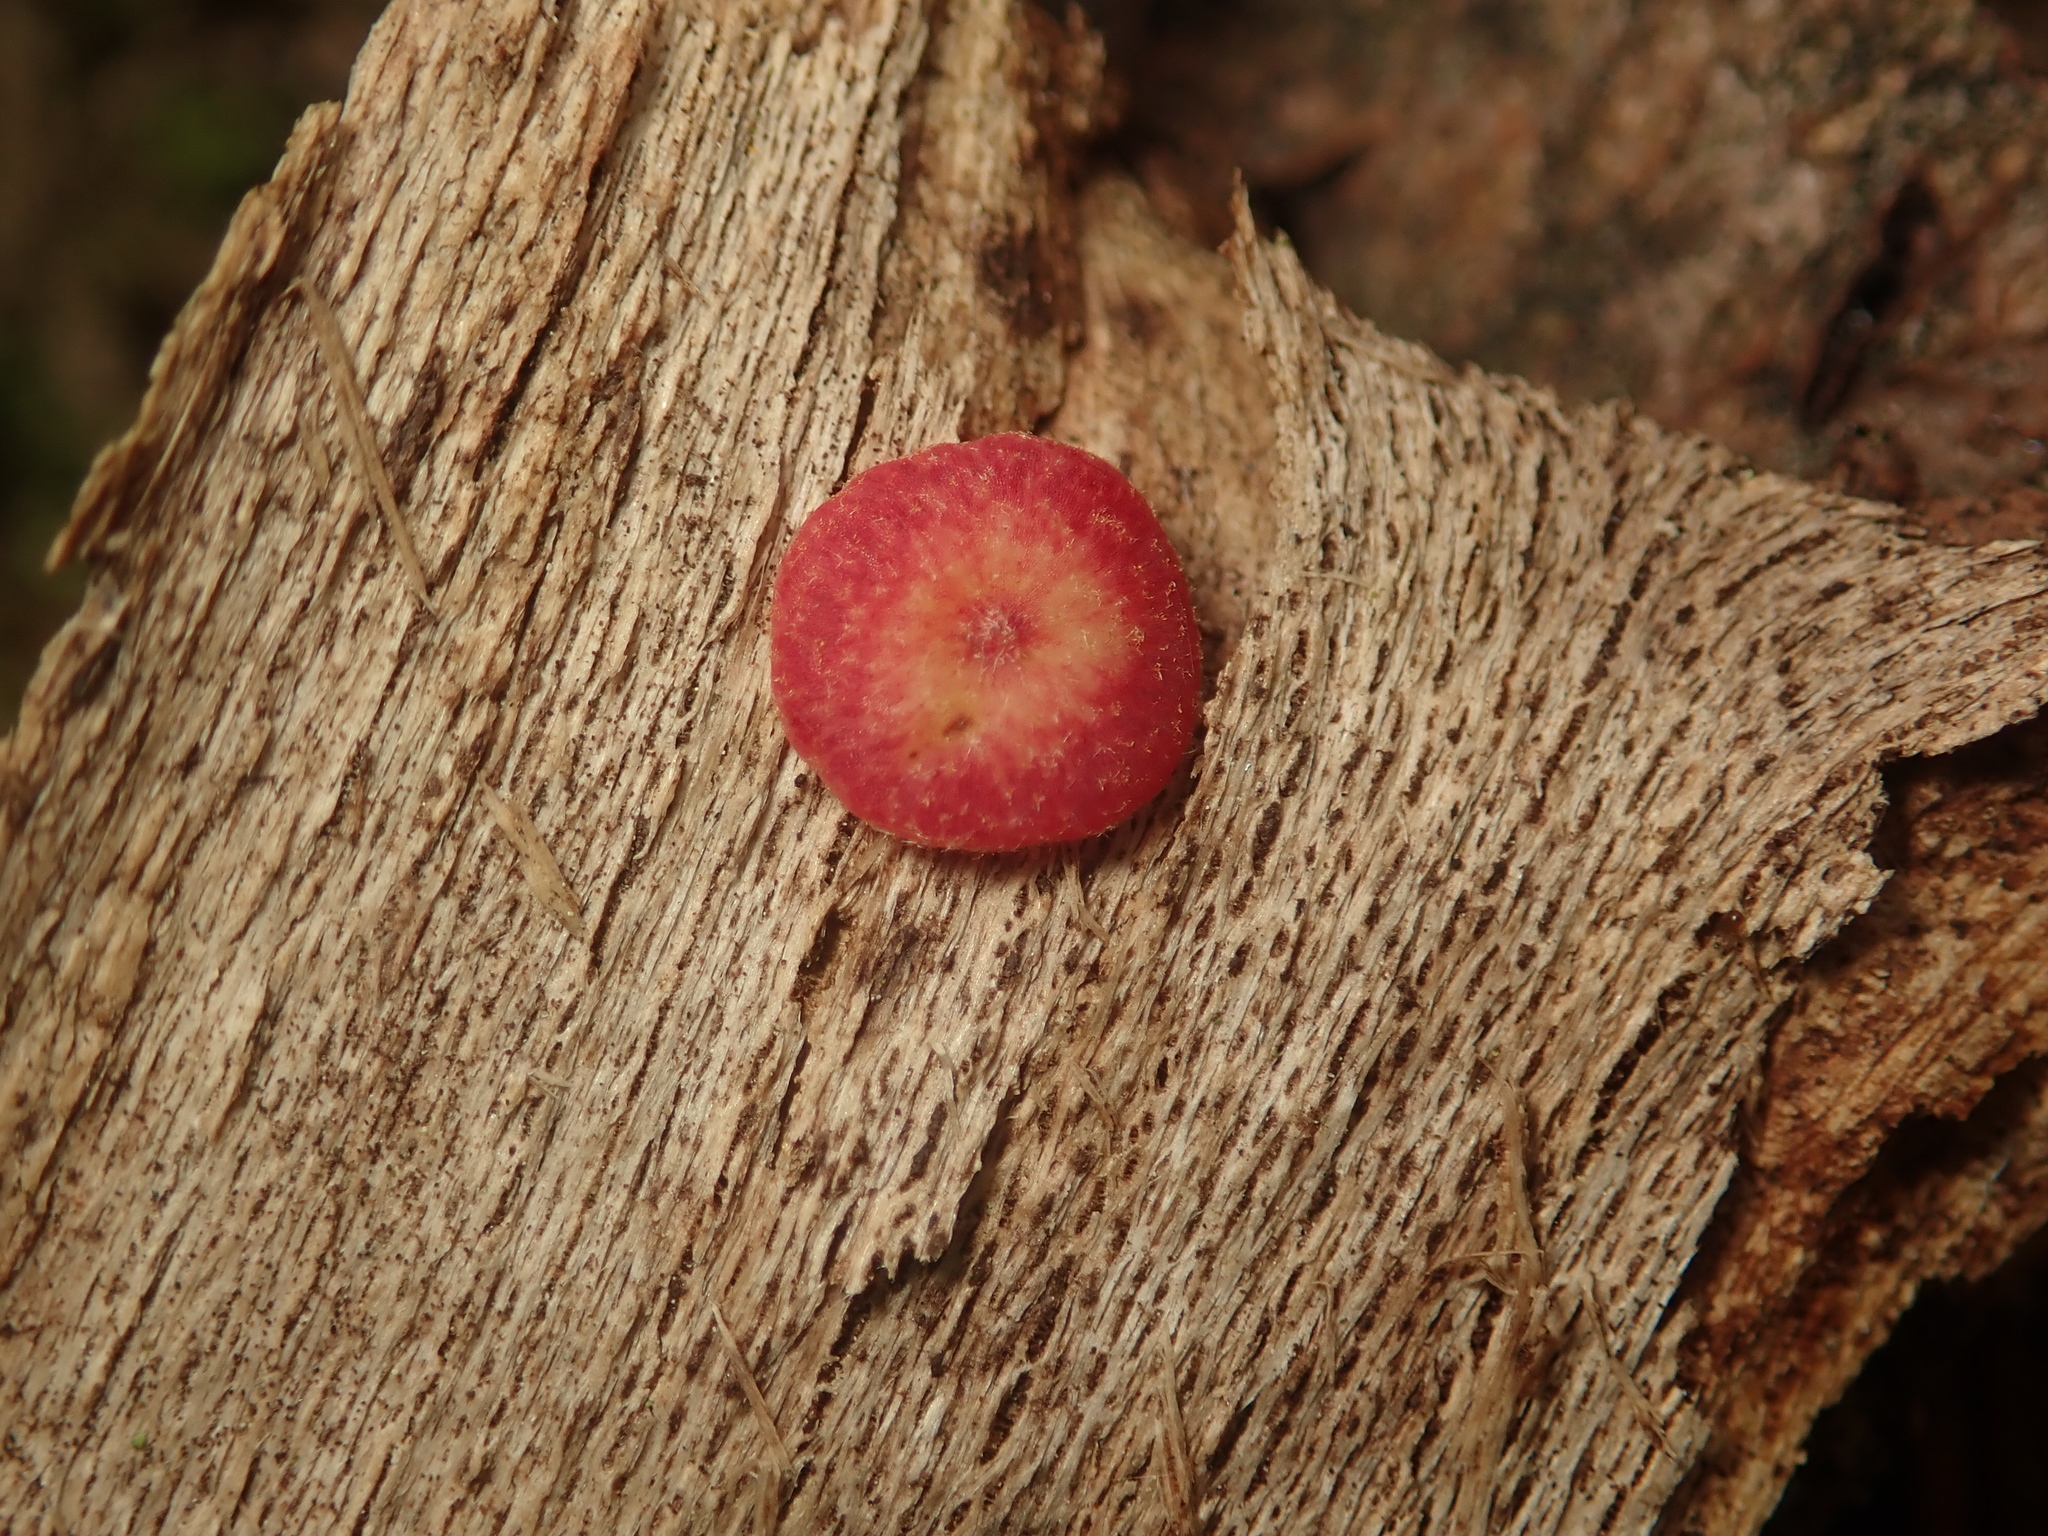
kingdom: Animalia
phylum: Arthropoda
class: Insecta
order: Hymenoptera
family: Cynipidae
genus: Neuroterus
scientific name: Neuroterus quercusbaccarum
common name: Common spangle gall
